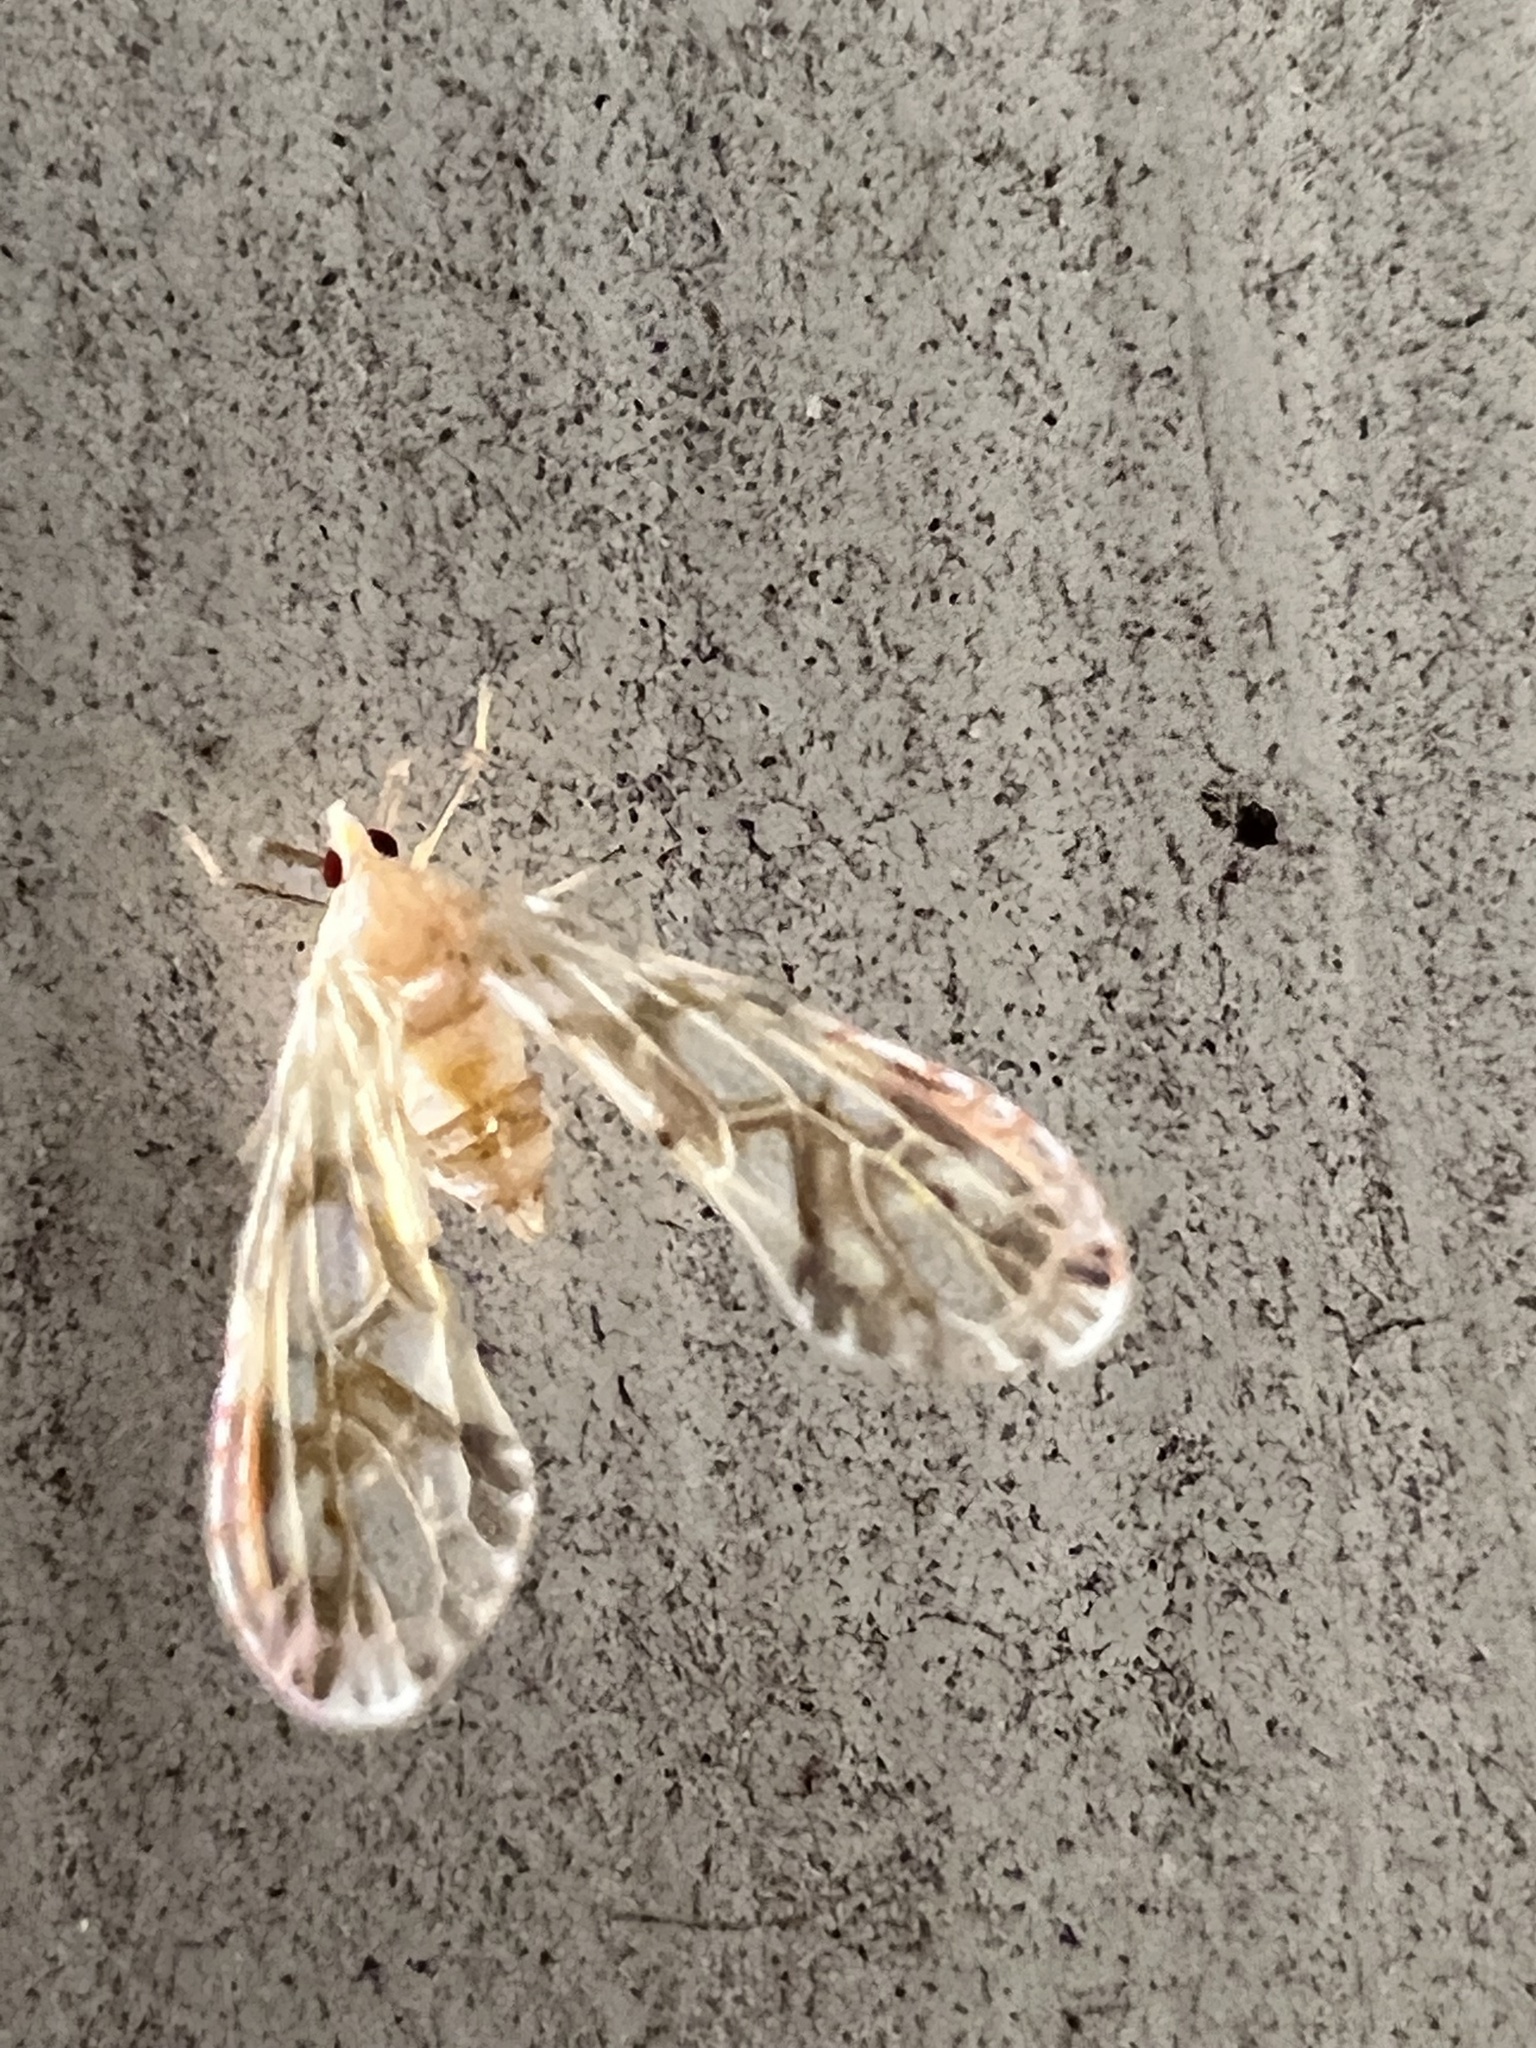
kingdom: Animalia
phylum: Arthropoda
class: Insecta
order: Hemiptera
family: Derbidae
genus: Anotia
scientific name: Anotia kirkaldyi
